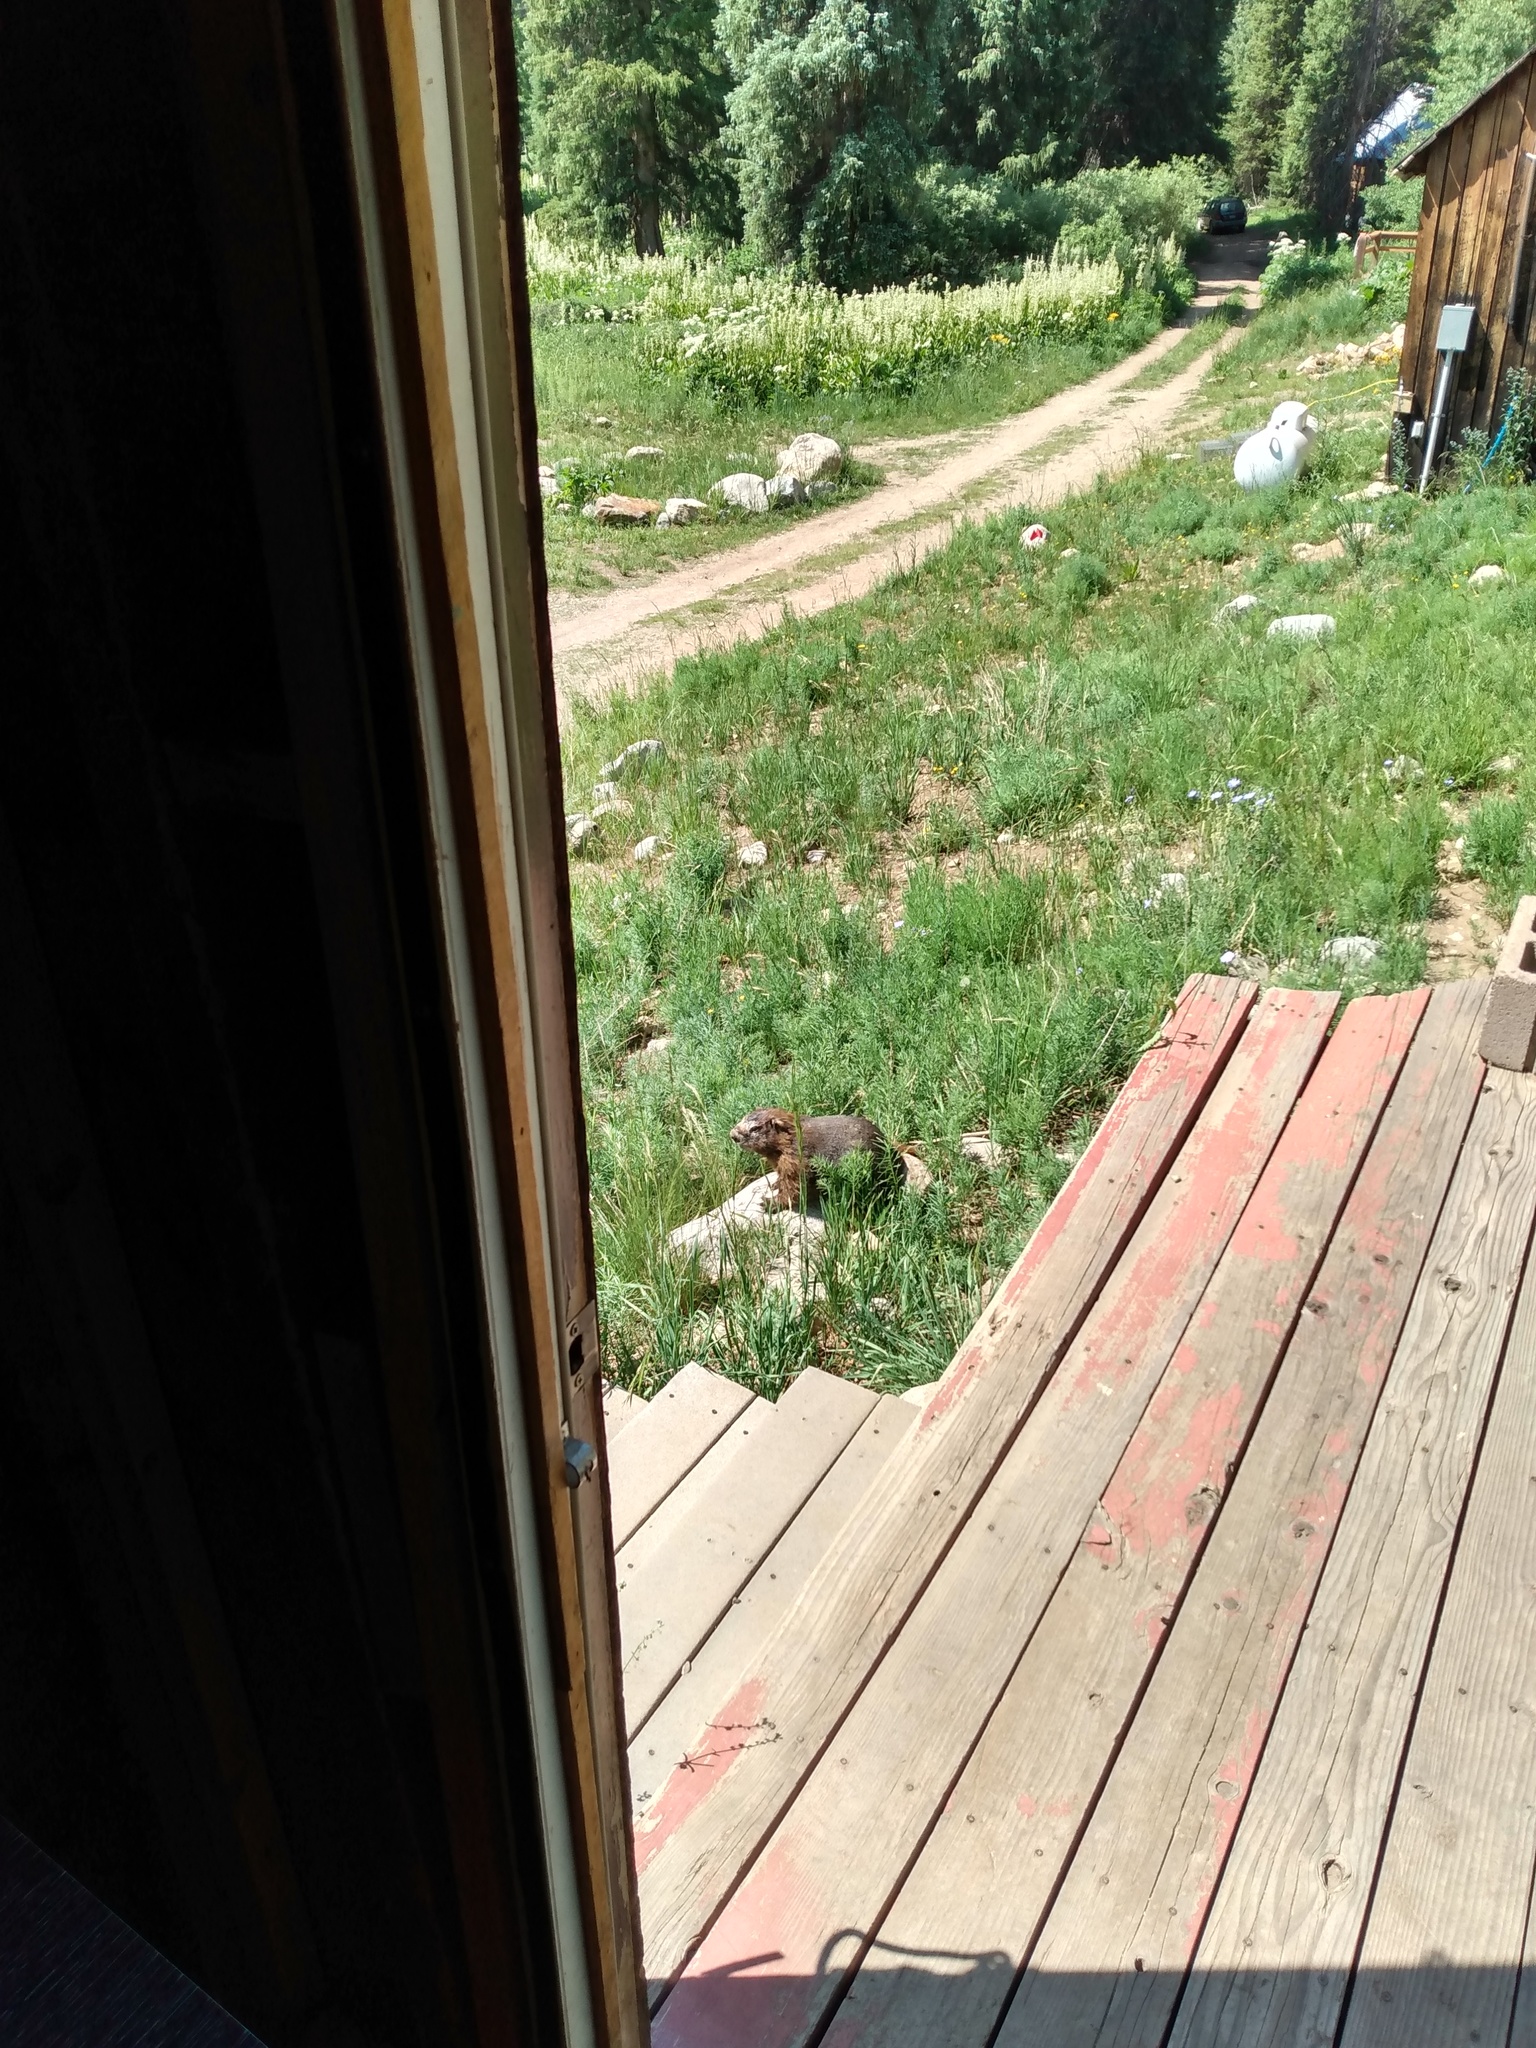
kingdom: Animalia
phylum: Chordata
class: Mammalia
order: Rodentia
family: Sciuridae
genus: Marmota
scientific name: Marmota flaviventris
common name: Yellow-bellied marmot
